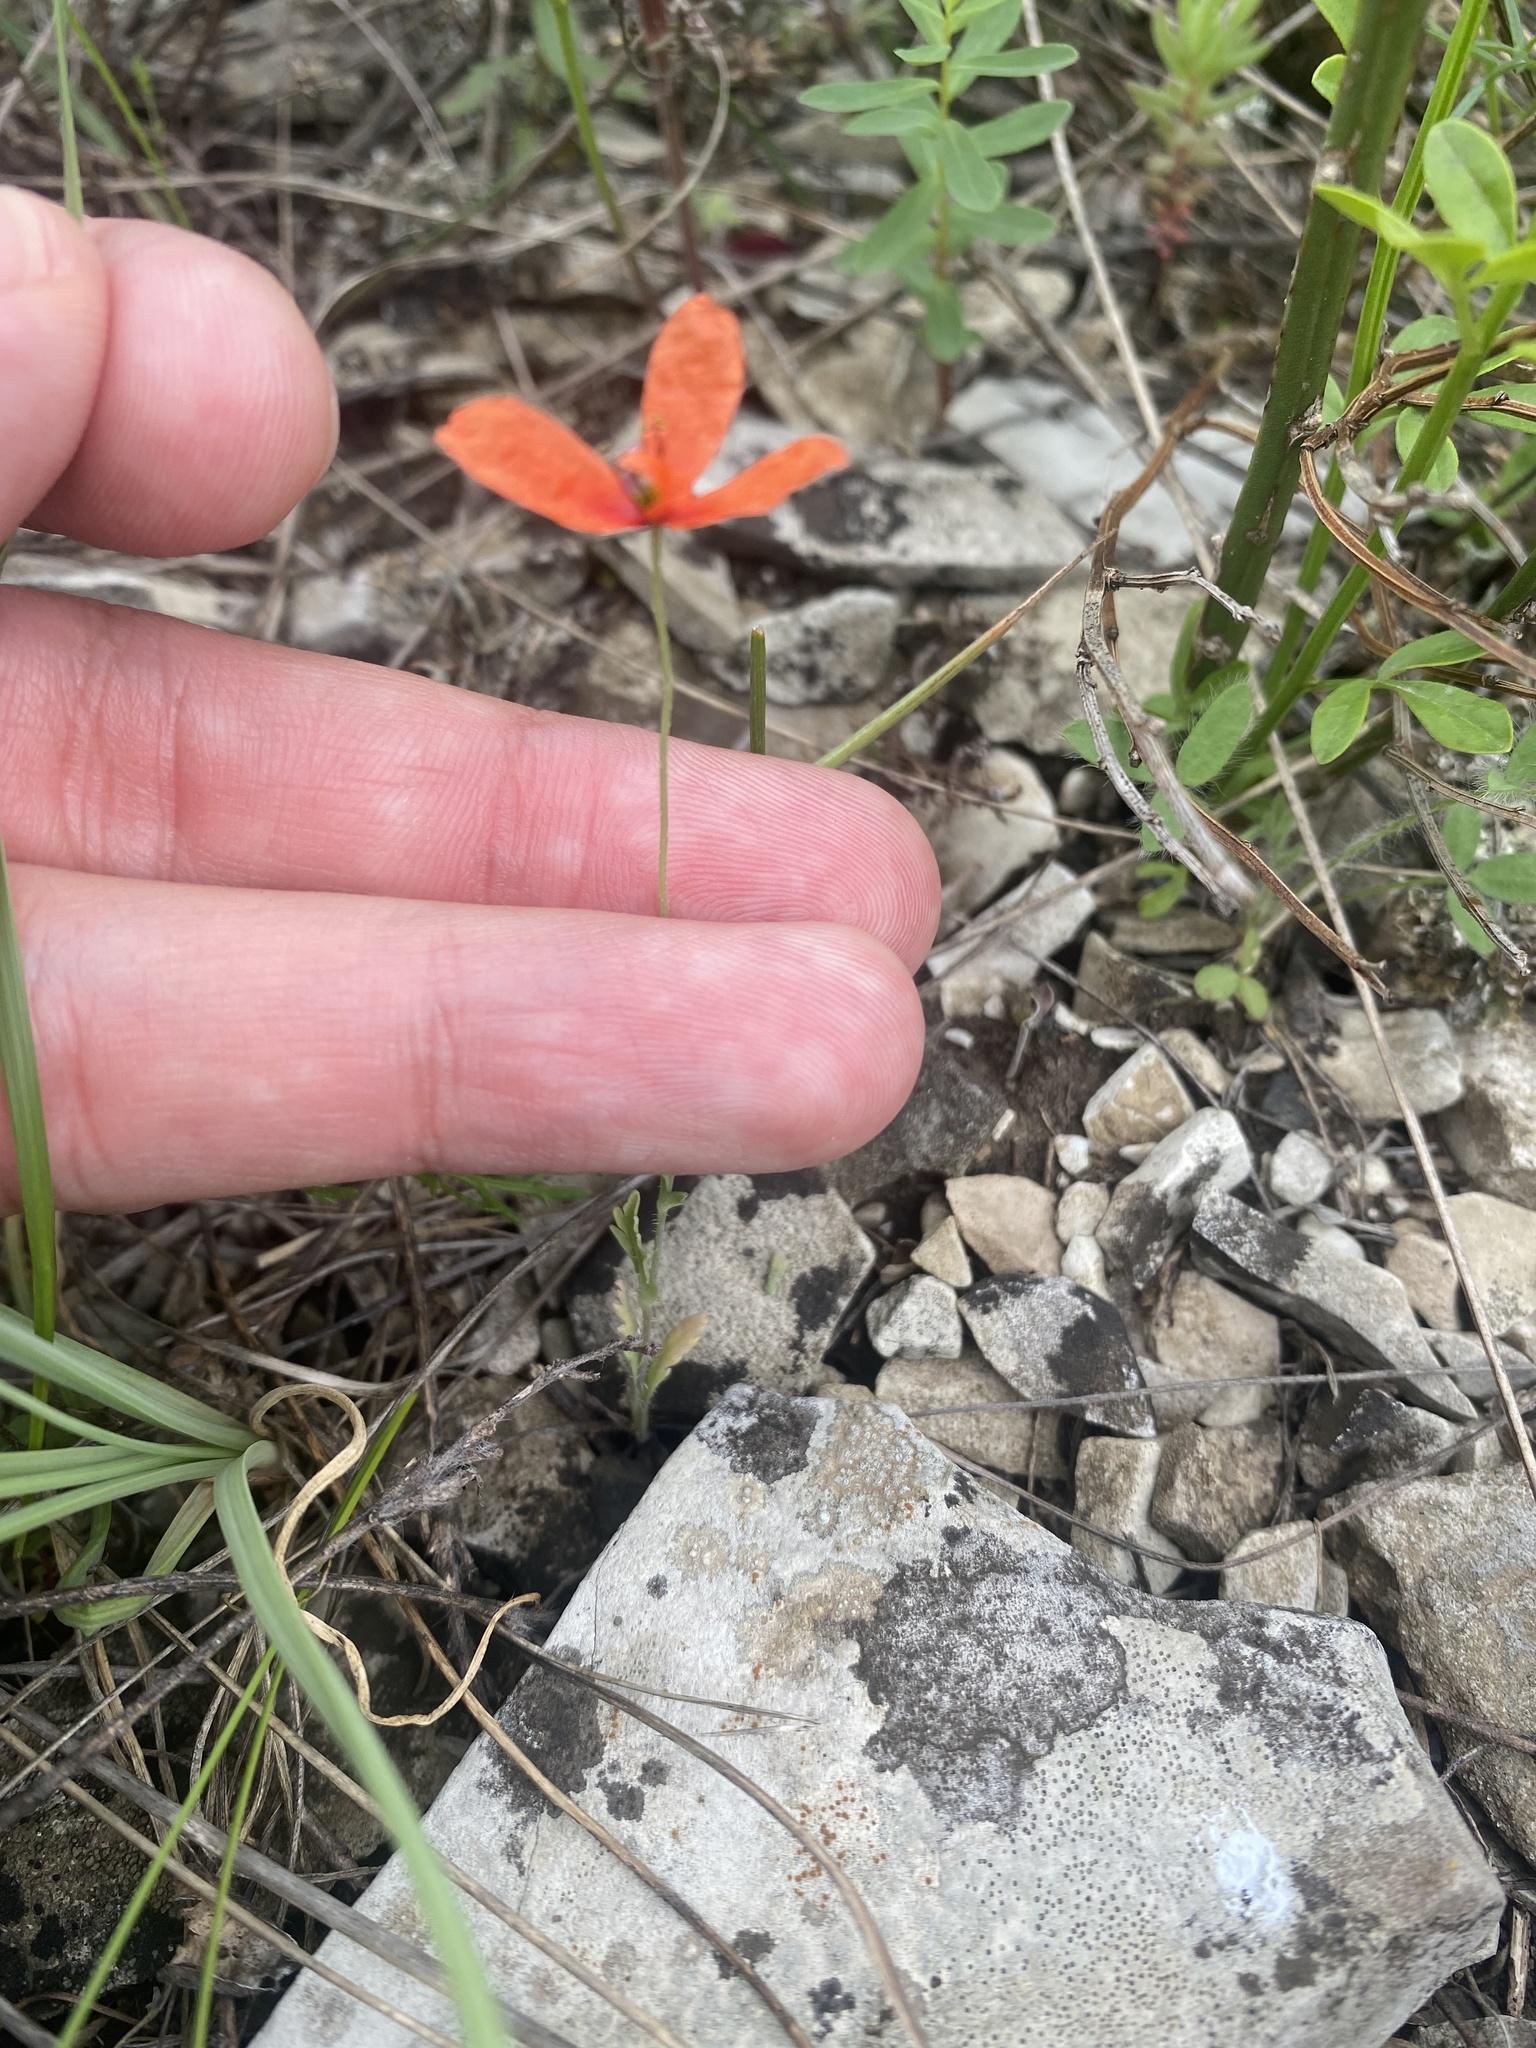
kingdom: Plantae
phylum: Tracheophyta
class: Magnoliopsida
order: Ranunculales
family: Papaveraceae
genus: Papaver
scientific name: Papaver dubium
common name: Long-headed poppy
